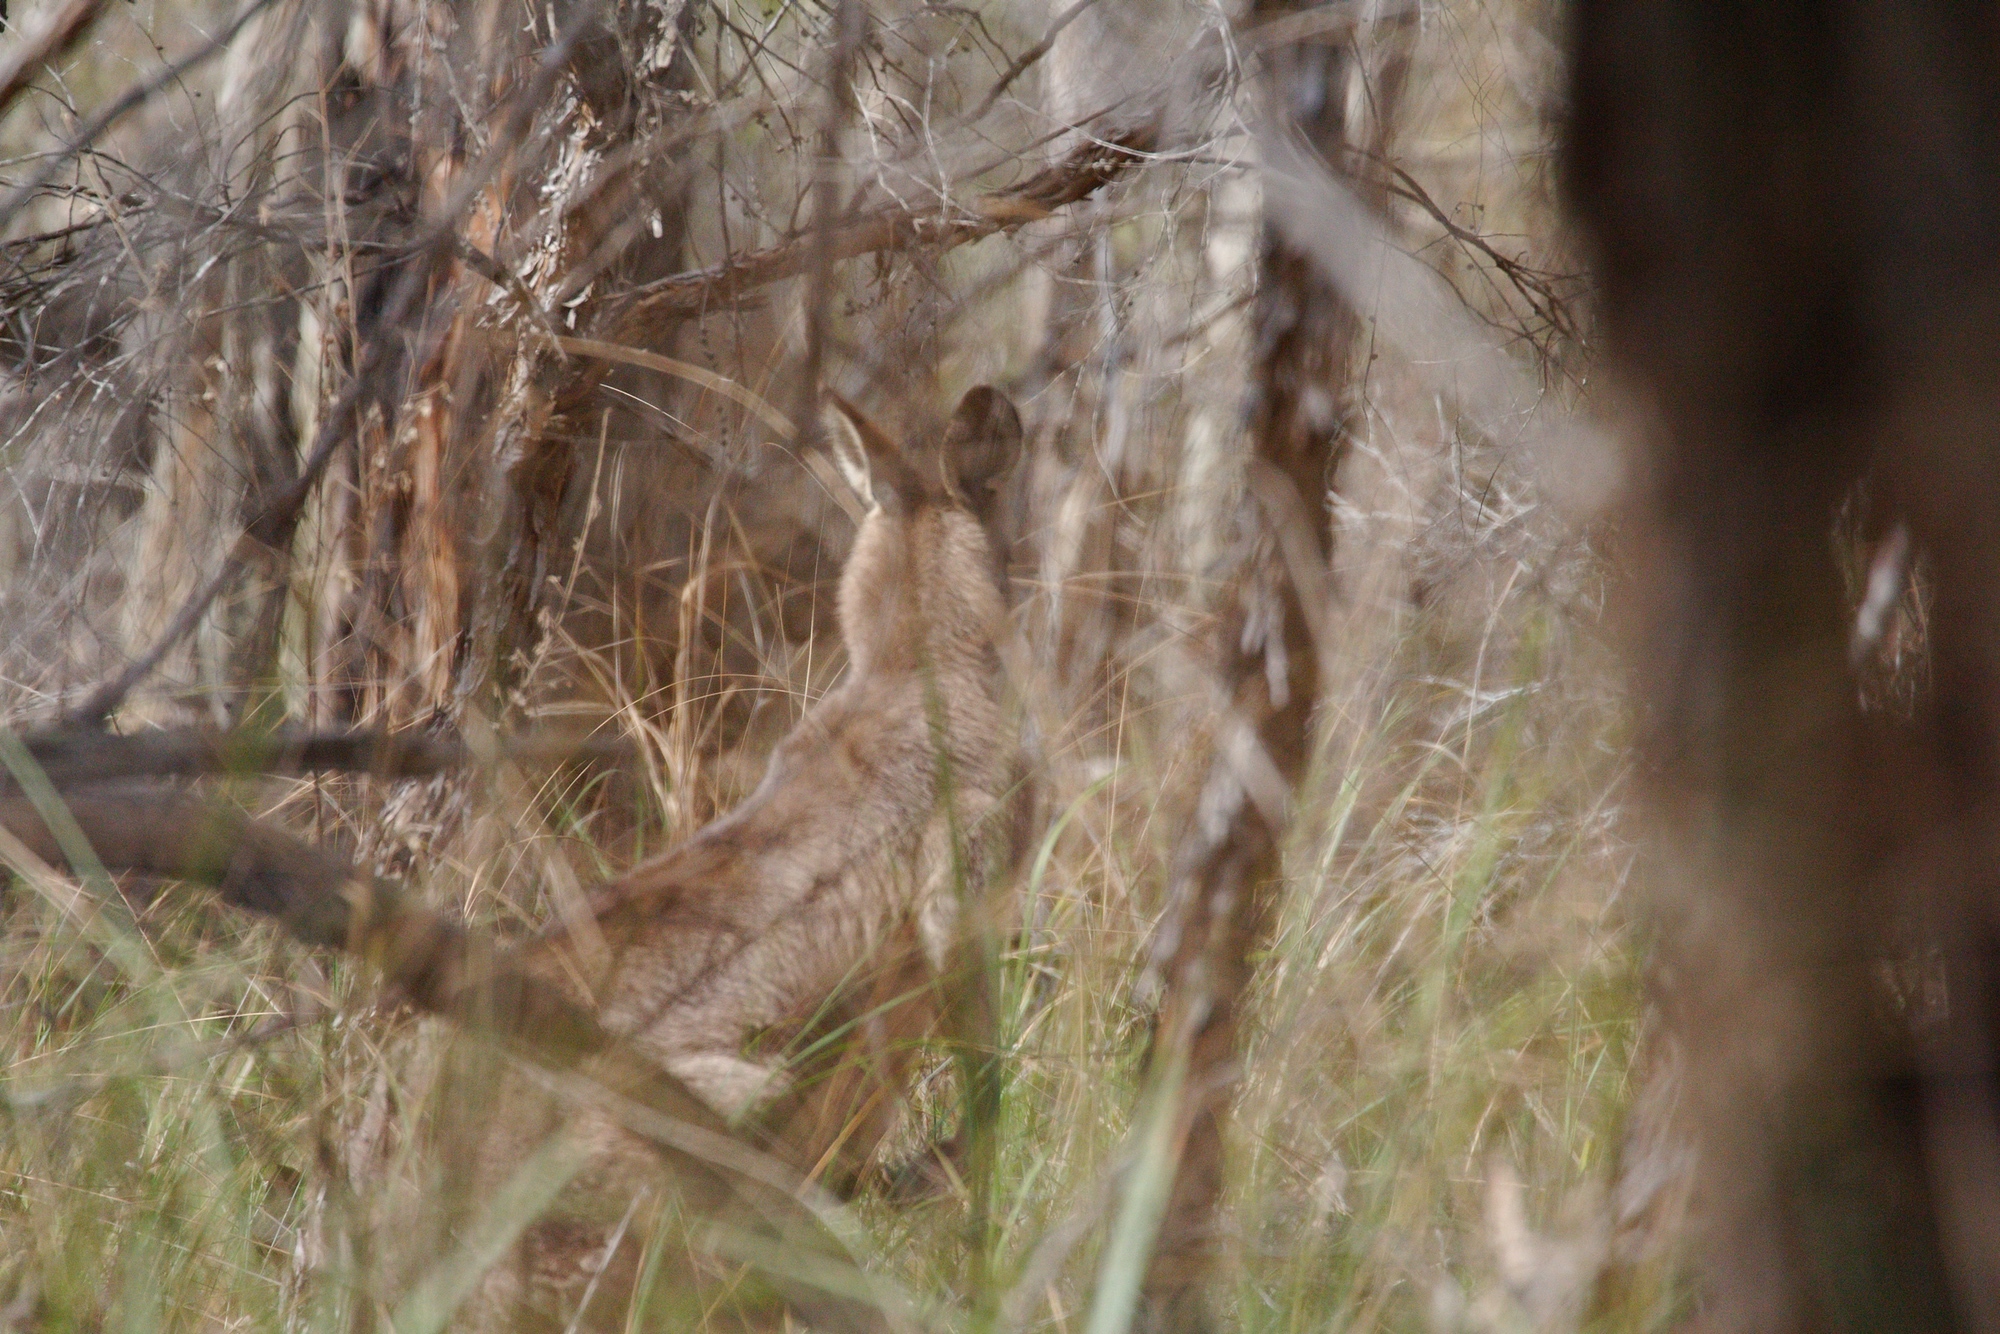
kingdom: Animalia
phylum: Chordata
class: Mammalia
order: Diprotodontia
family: Macropodidae
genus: Macropus
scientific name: Macropus giganteus
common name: Eastern grey kangaroo
